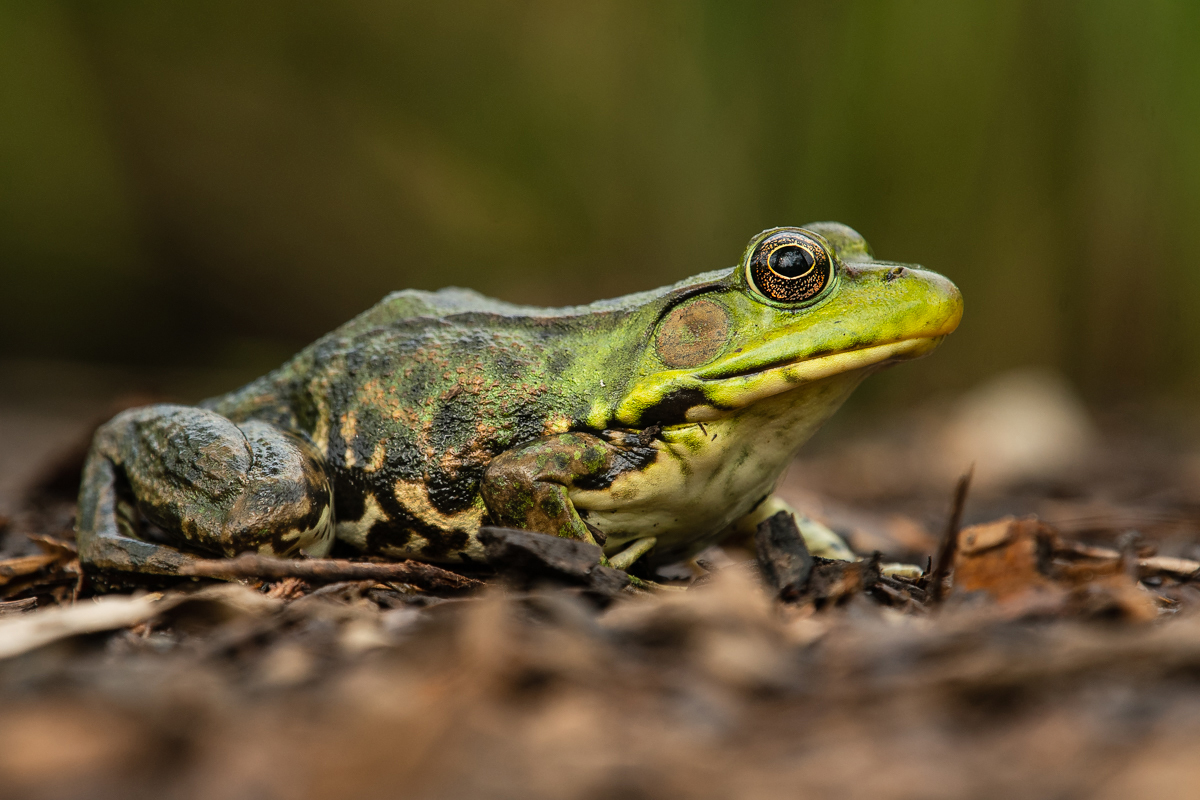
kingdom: Animalia
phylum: Chordata
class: Amphibia
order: Anura
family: Ranidae
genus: Lithobates
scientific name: Lithobates clamitans
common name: Green frog
